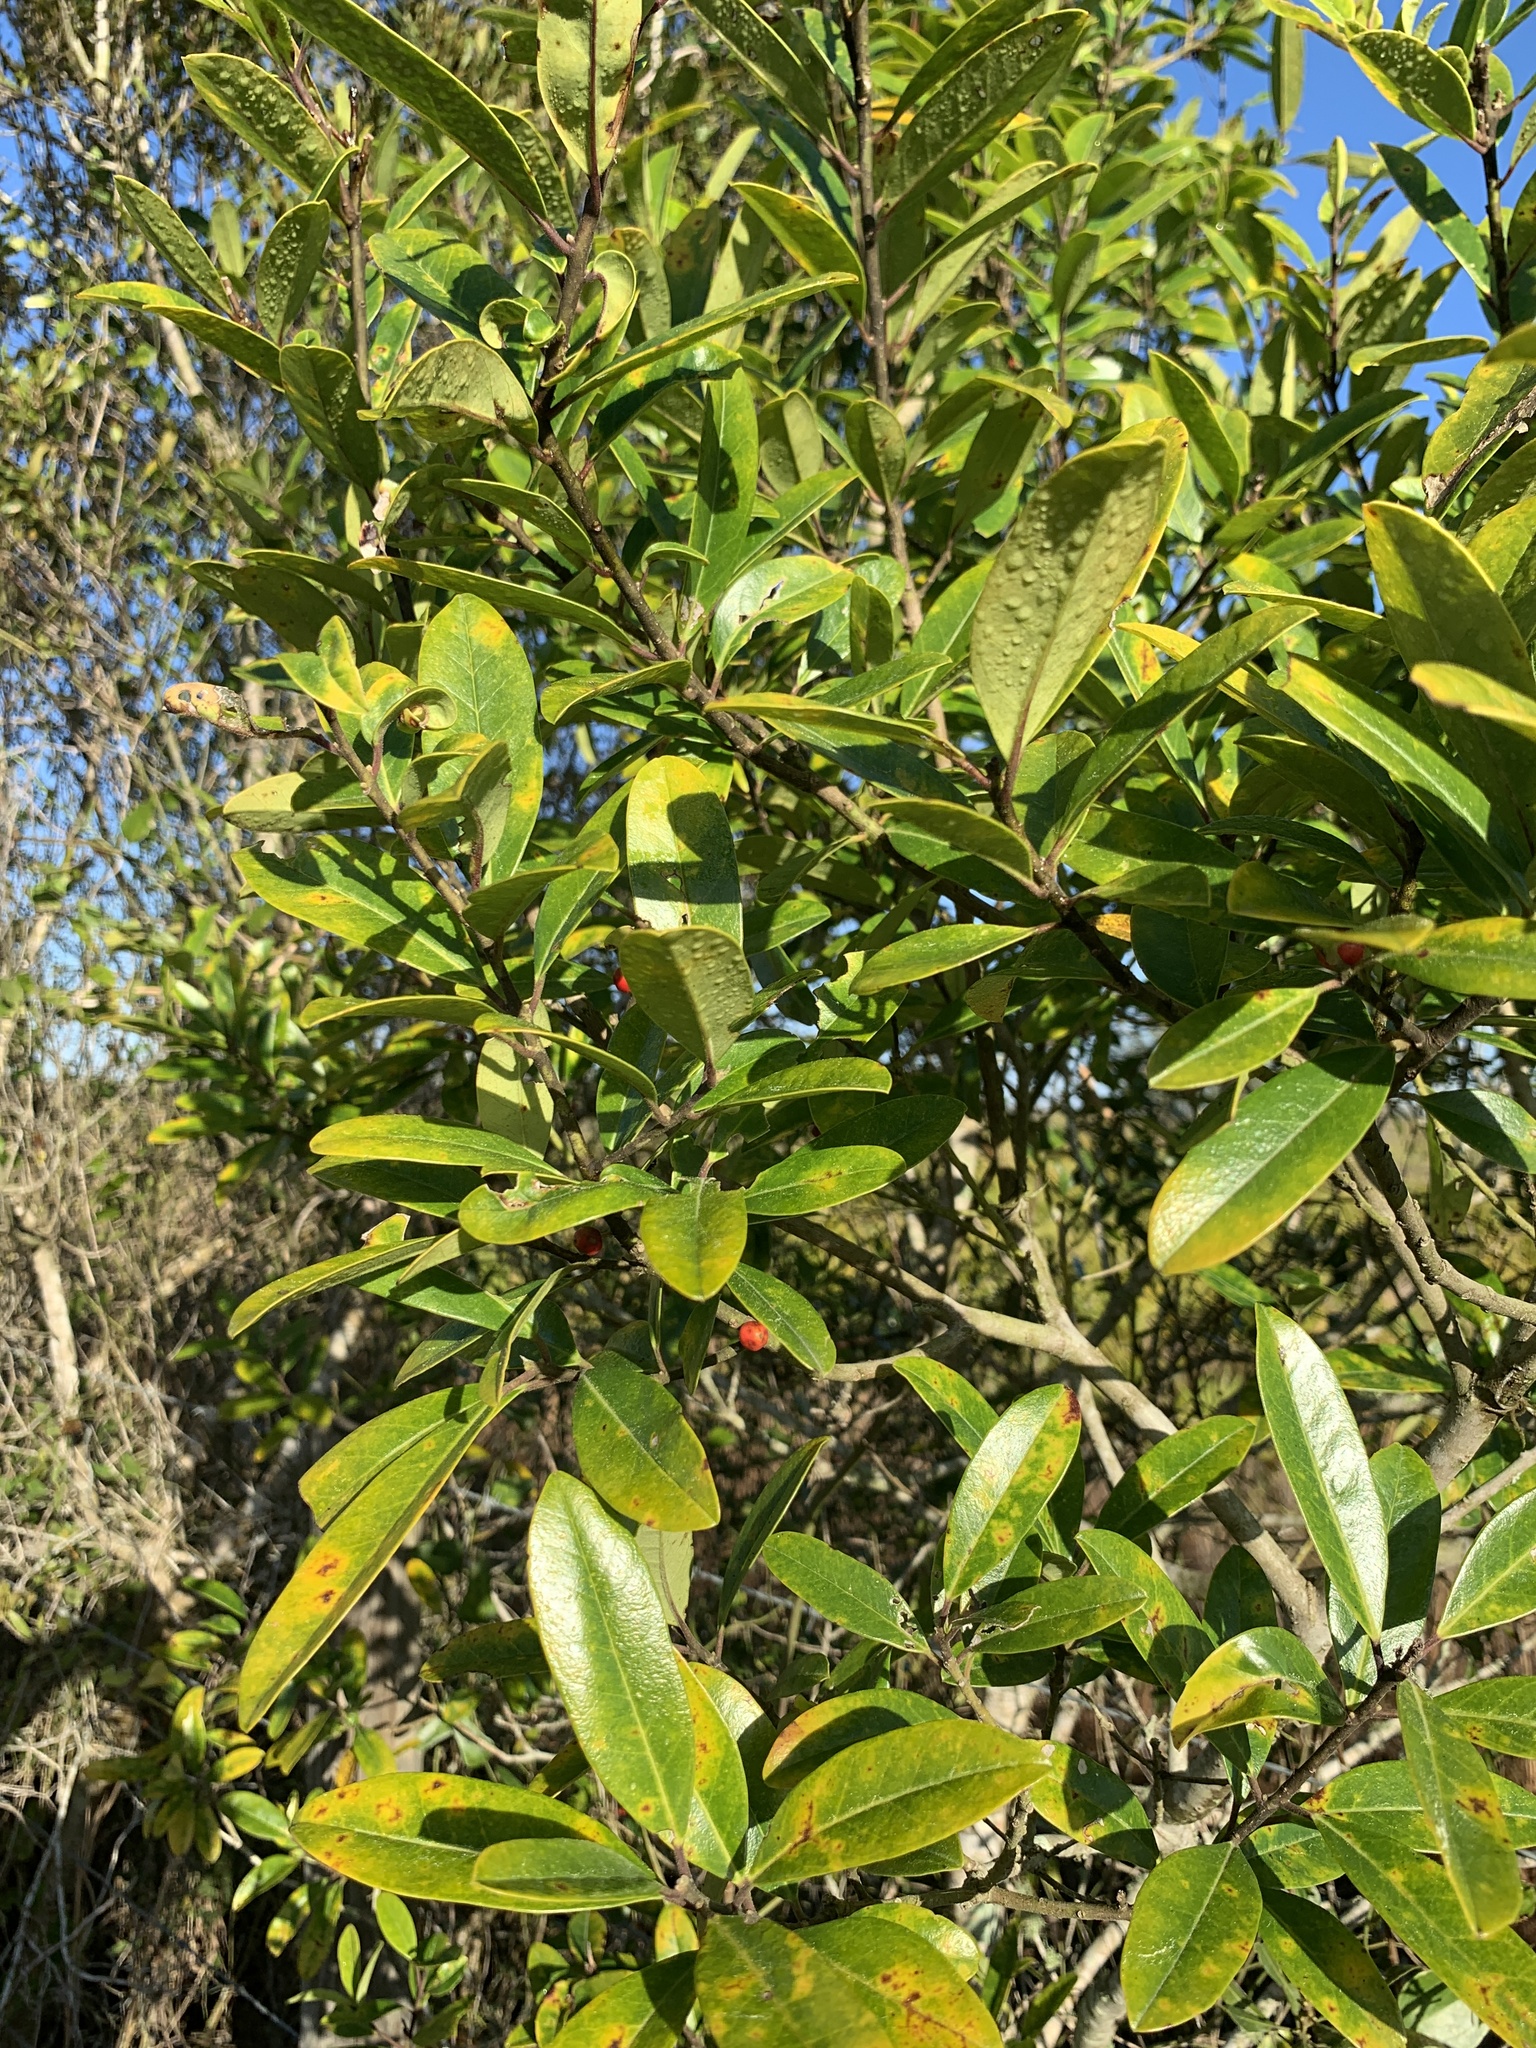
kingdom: Plantae
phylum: Tracheophyta
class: Magnoliopsida
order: Aquifoliales
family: Aquifoliaceae
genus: Ilex
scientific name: Ilex cassine
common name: Dahoon
